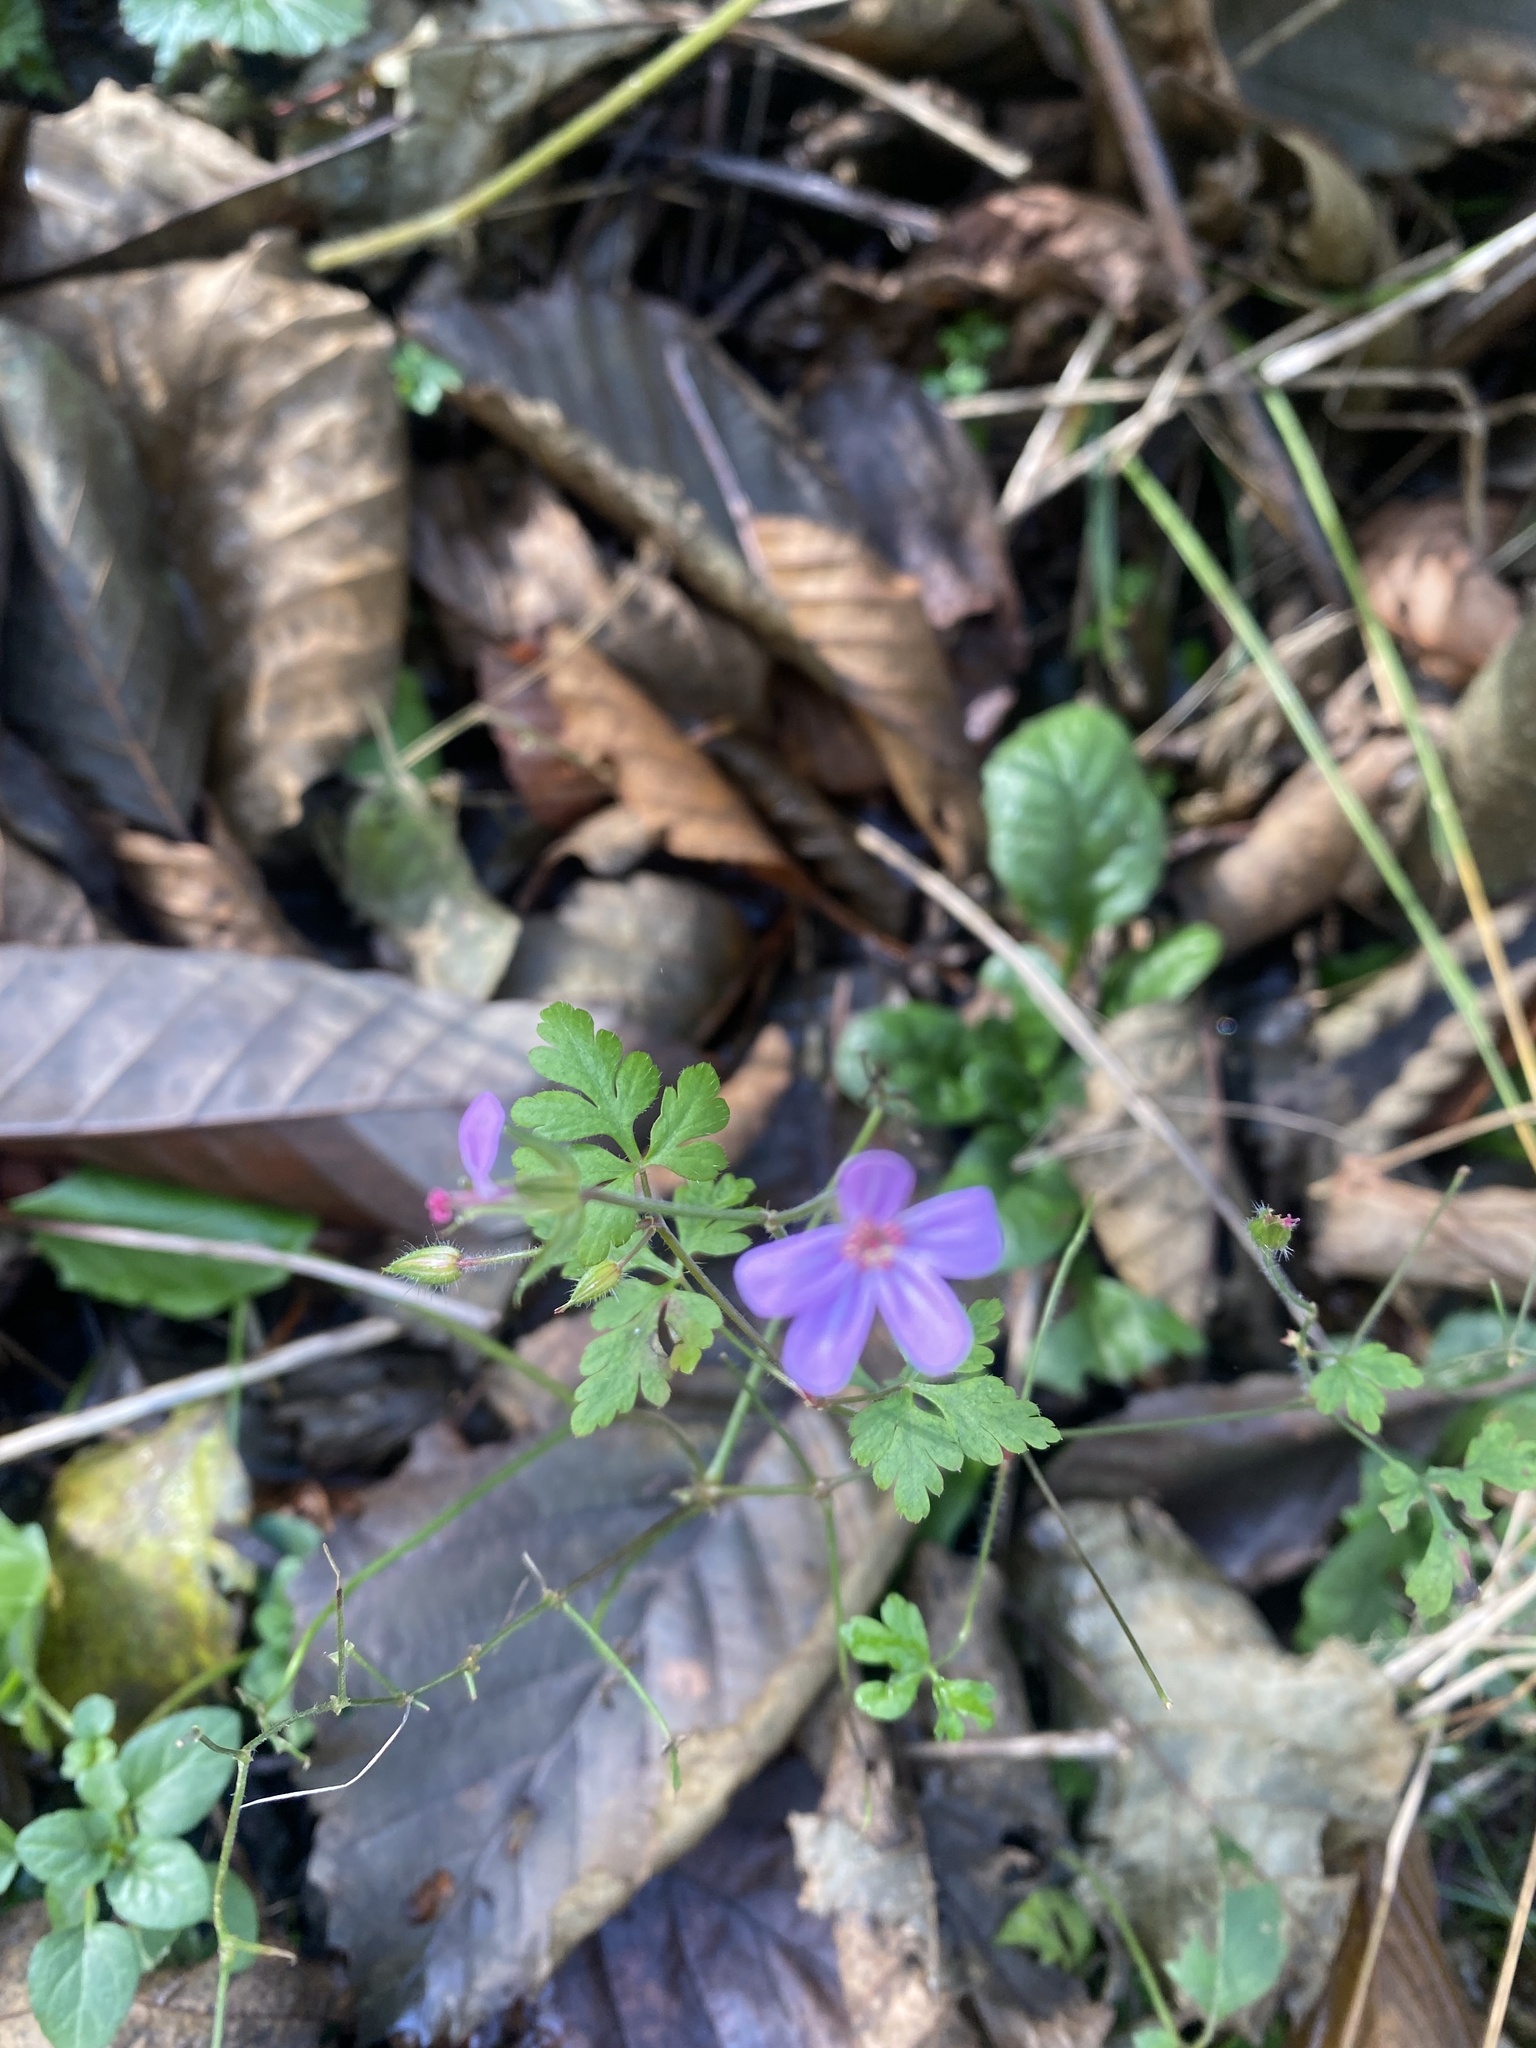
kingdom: Plantae
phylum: Tracheophyta
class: Magnoliopsida
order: Geraniales
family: Geraniaceae
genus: Geranium
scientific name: Geranium robertianum
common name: Herb-robert
